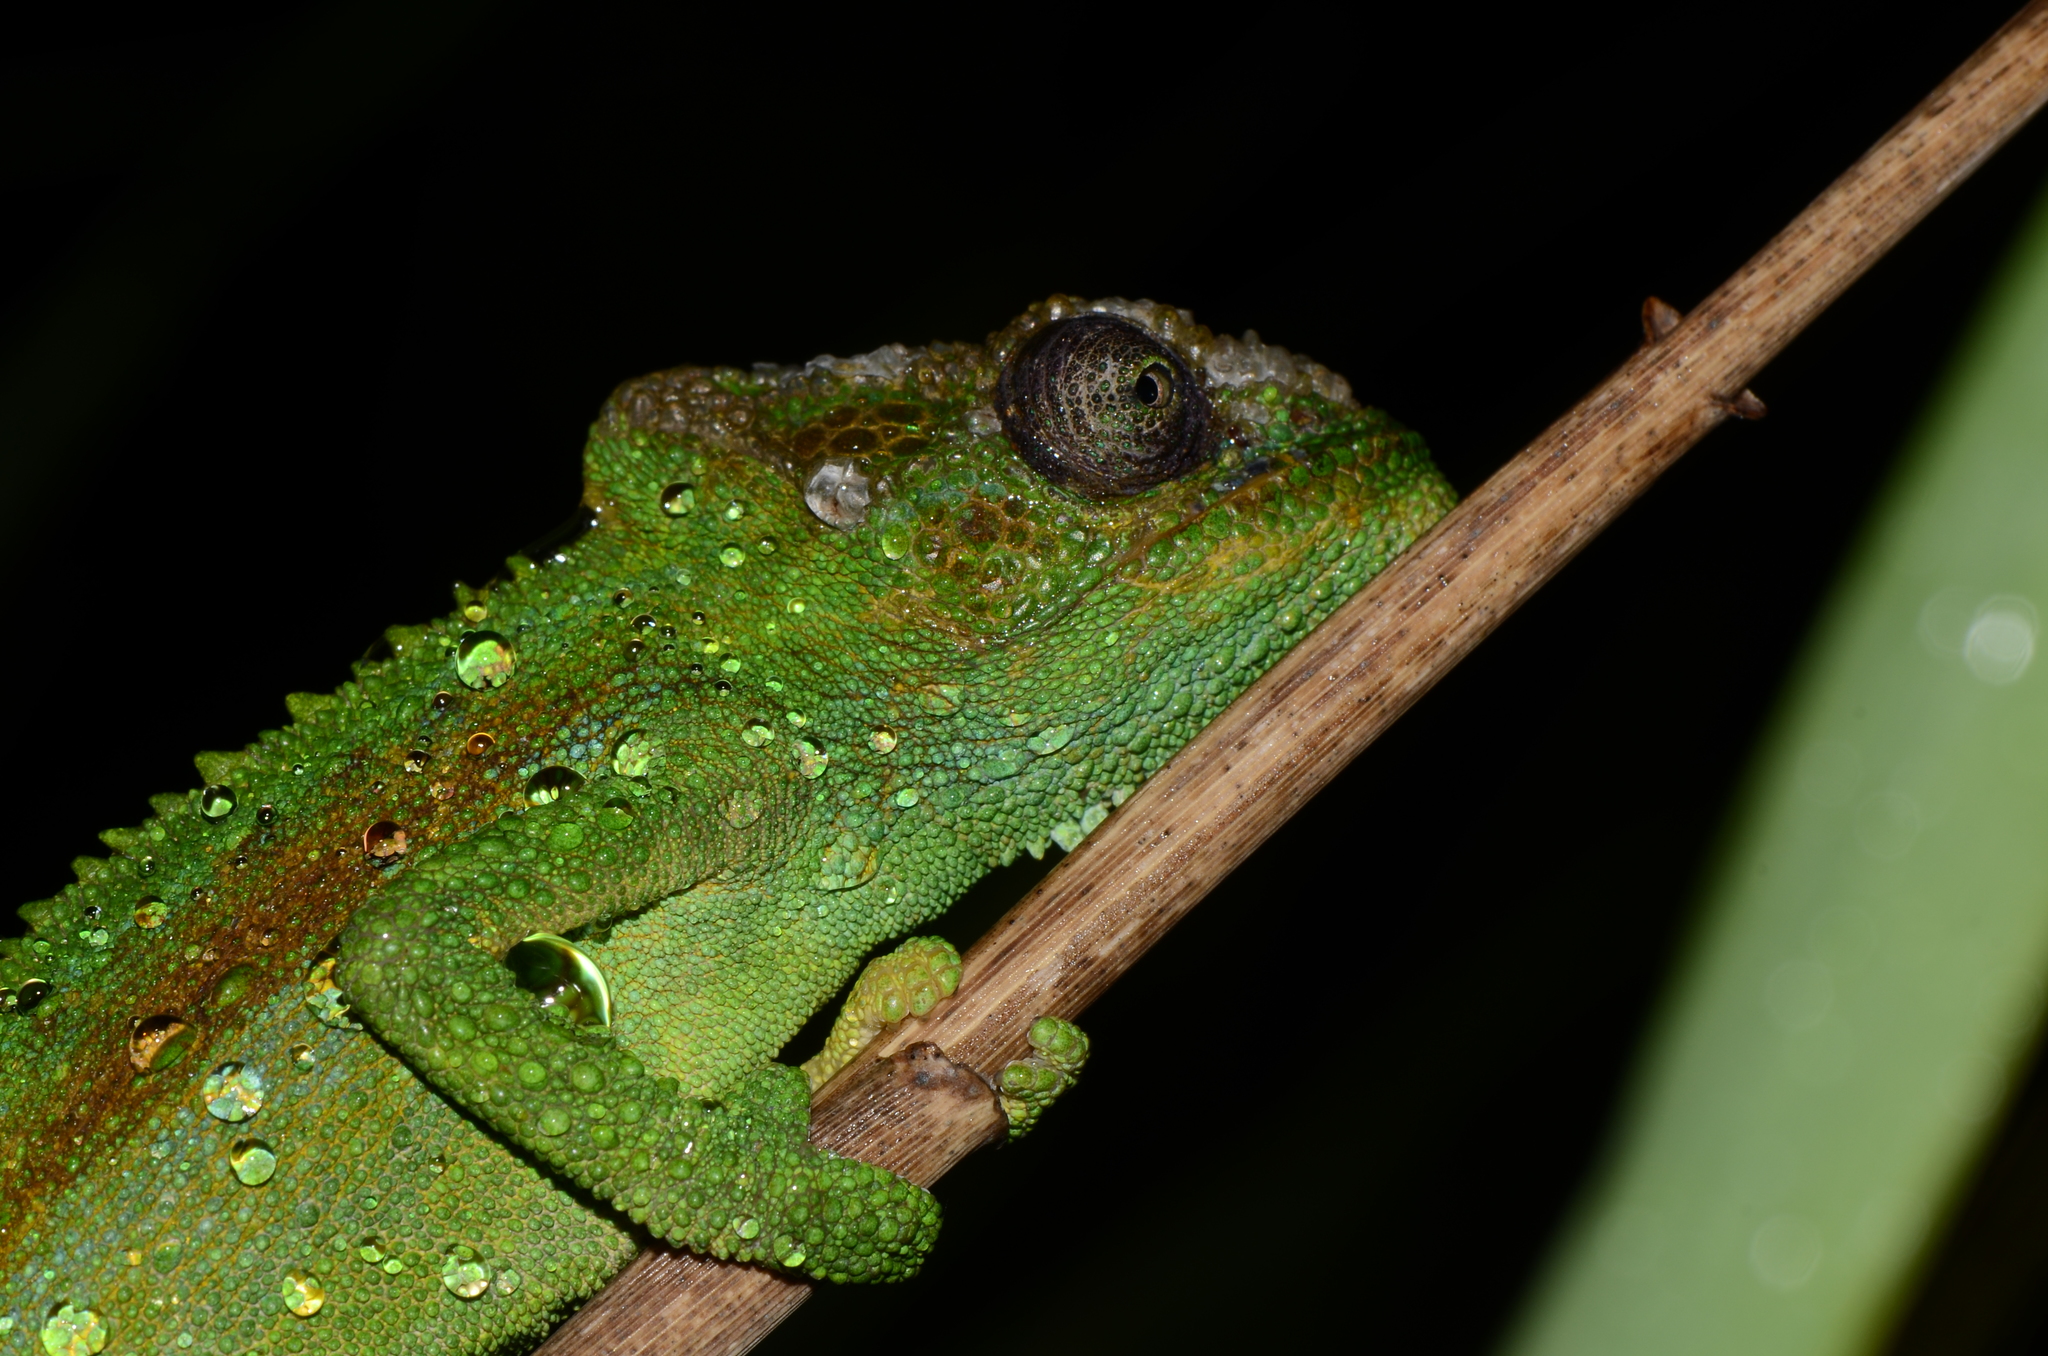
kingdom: Animalia
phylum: Chordata
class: Squamata
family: Chamaeleonidae
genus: Bradypodion
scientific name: Bradypodion pumilum
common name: Cape dwarf chameleon
